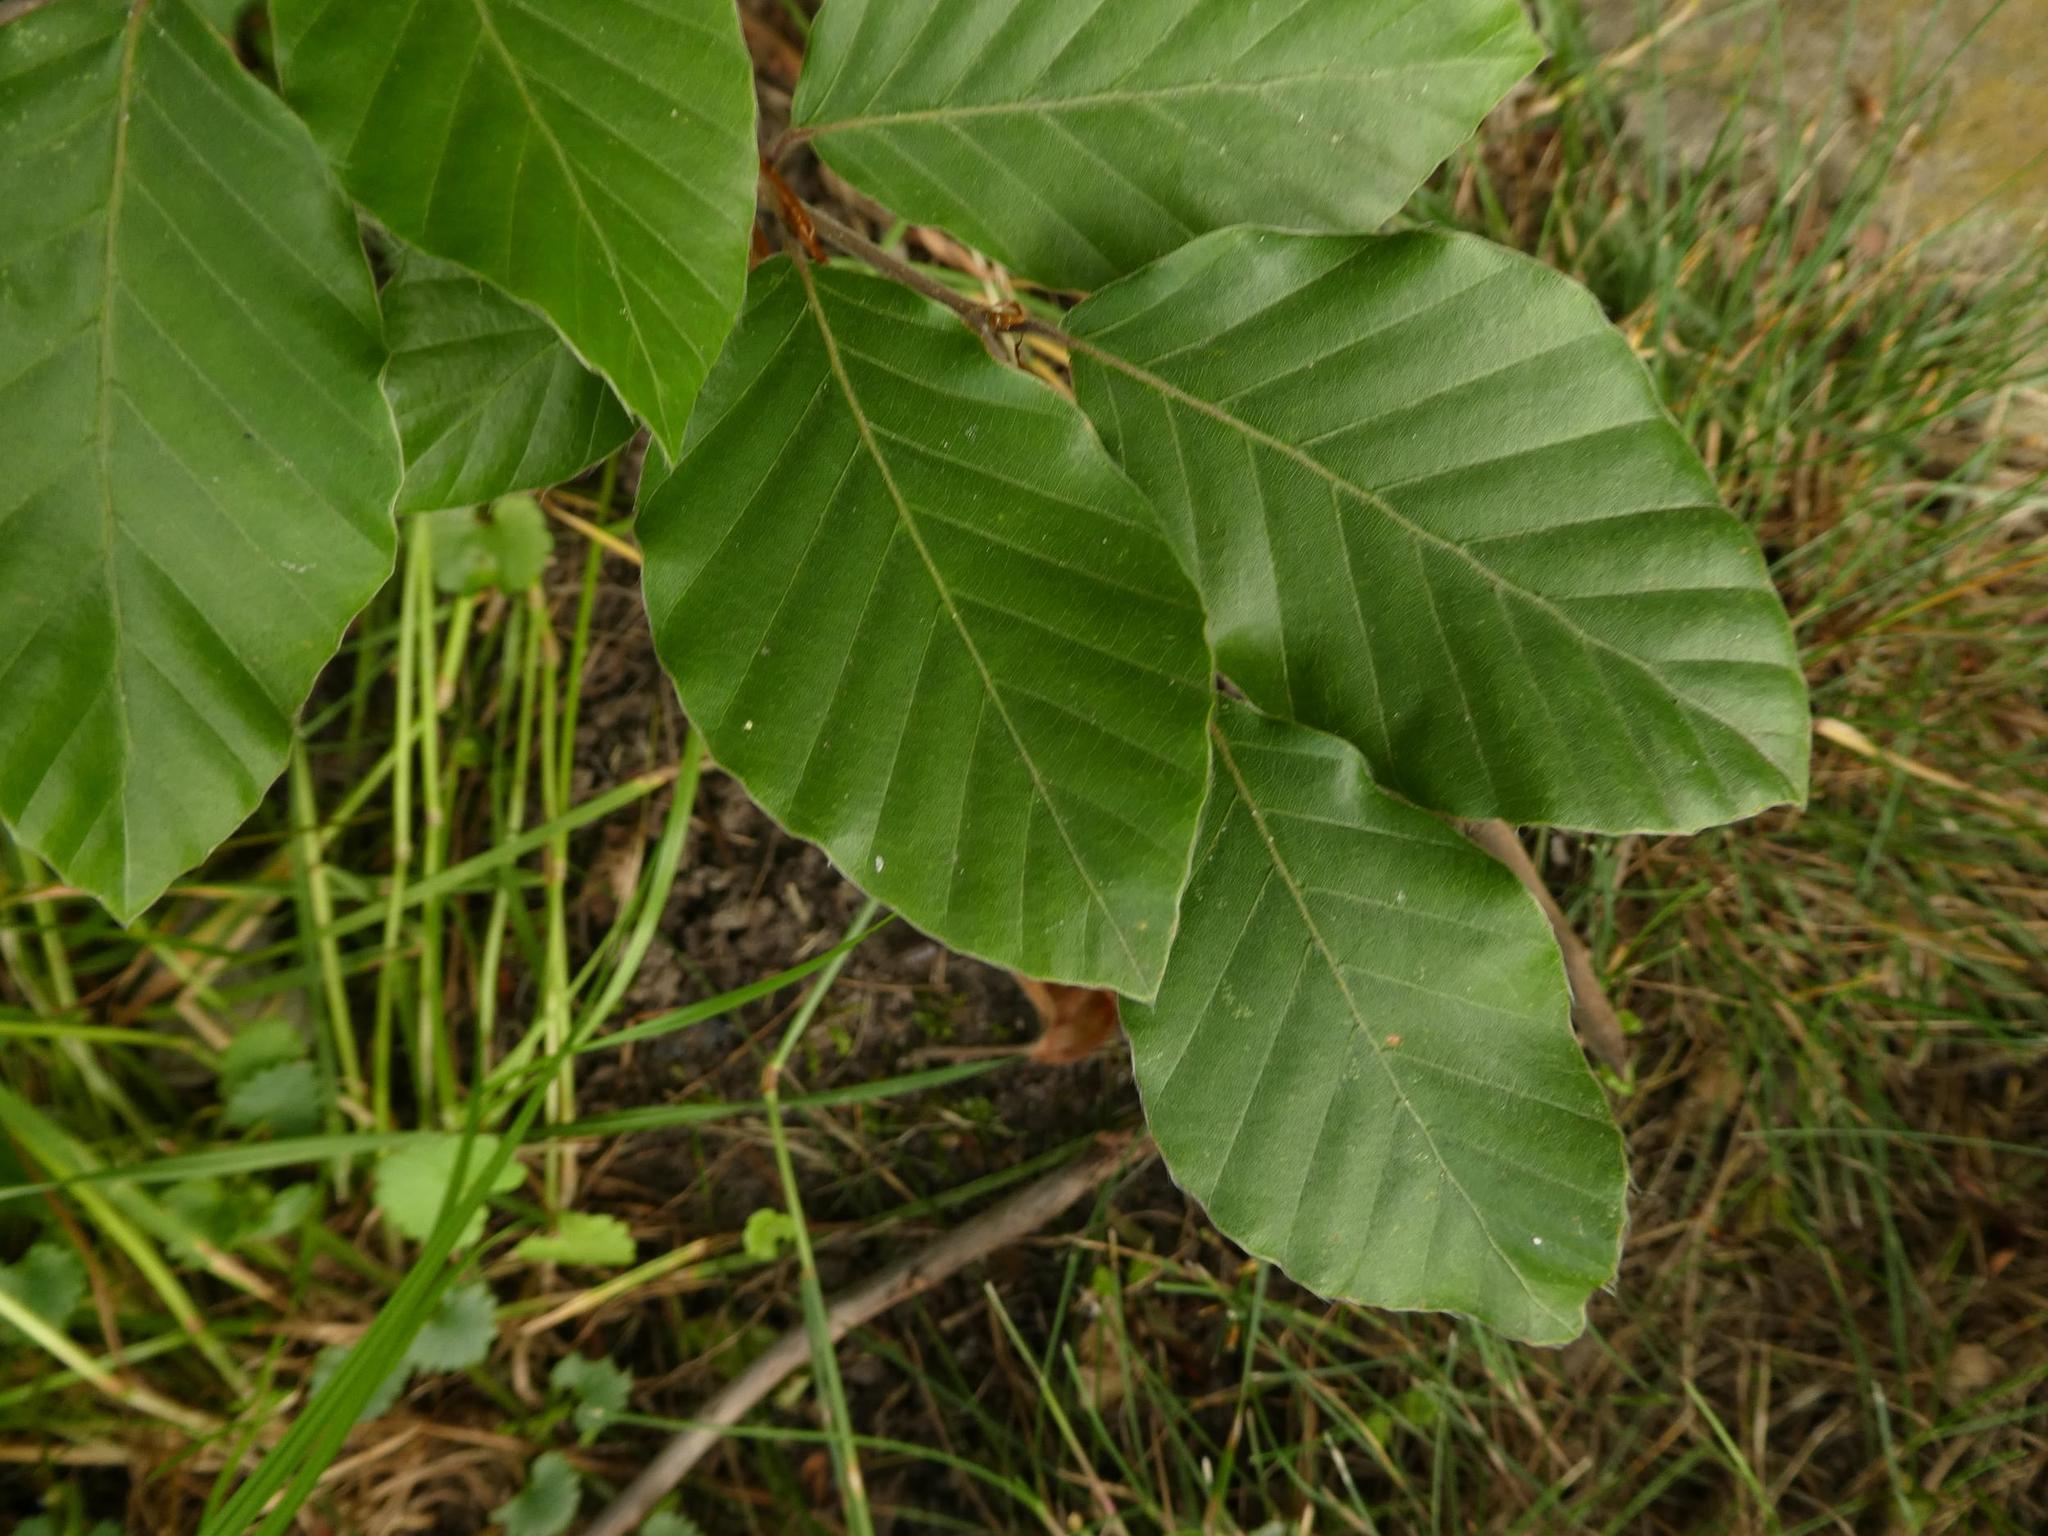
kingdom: Plantae
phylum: Tracheophyta
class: Magnoliopsida
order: Fagales
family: Fagaceae
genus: Fagus
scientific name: Fagus sylvatica
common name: Beech
